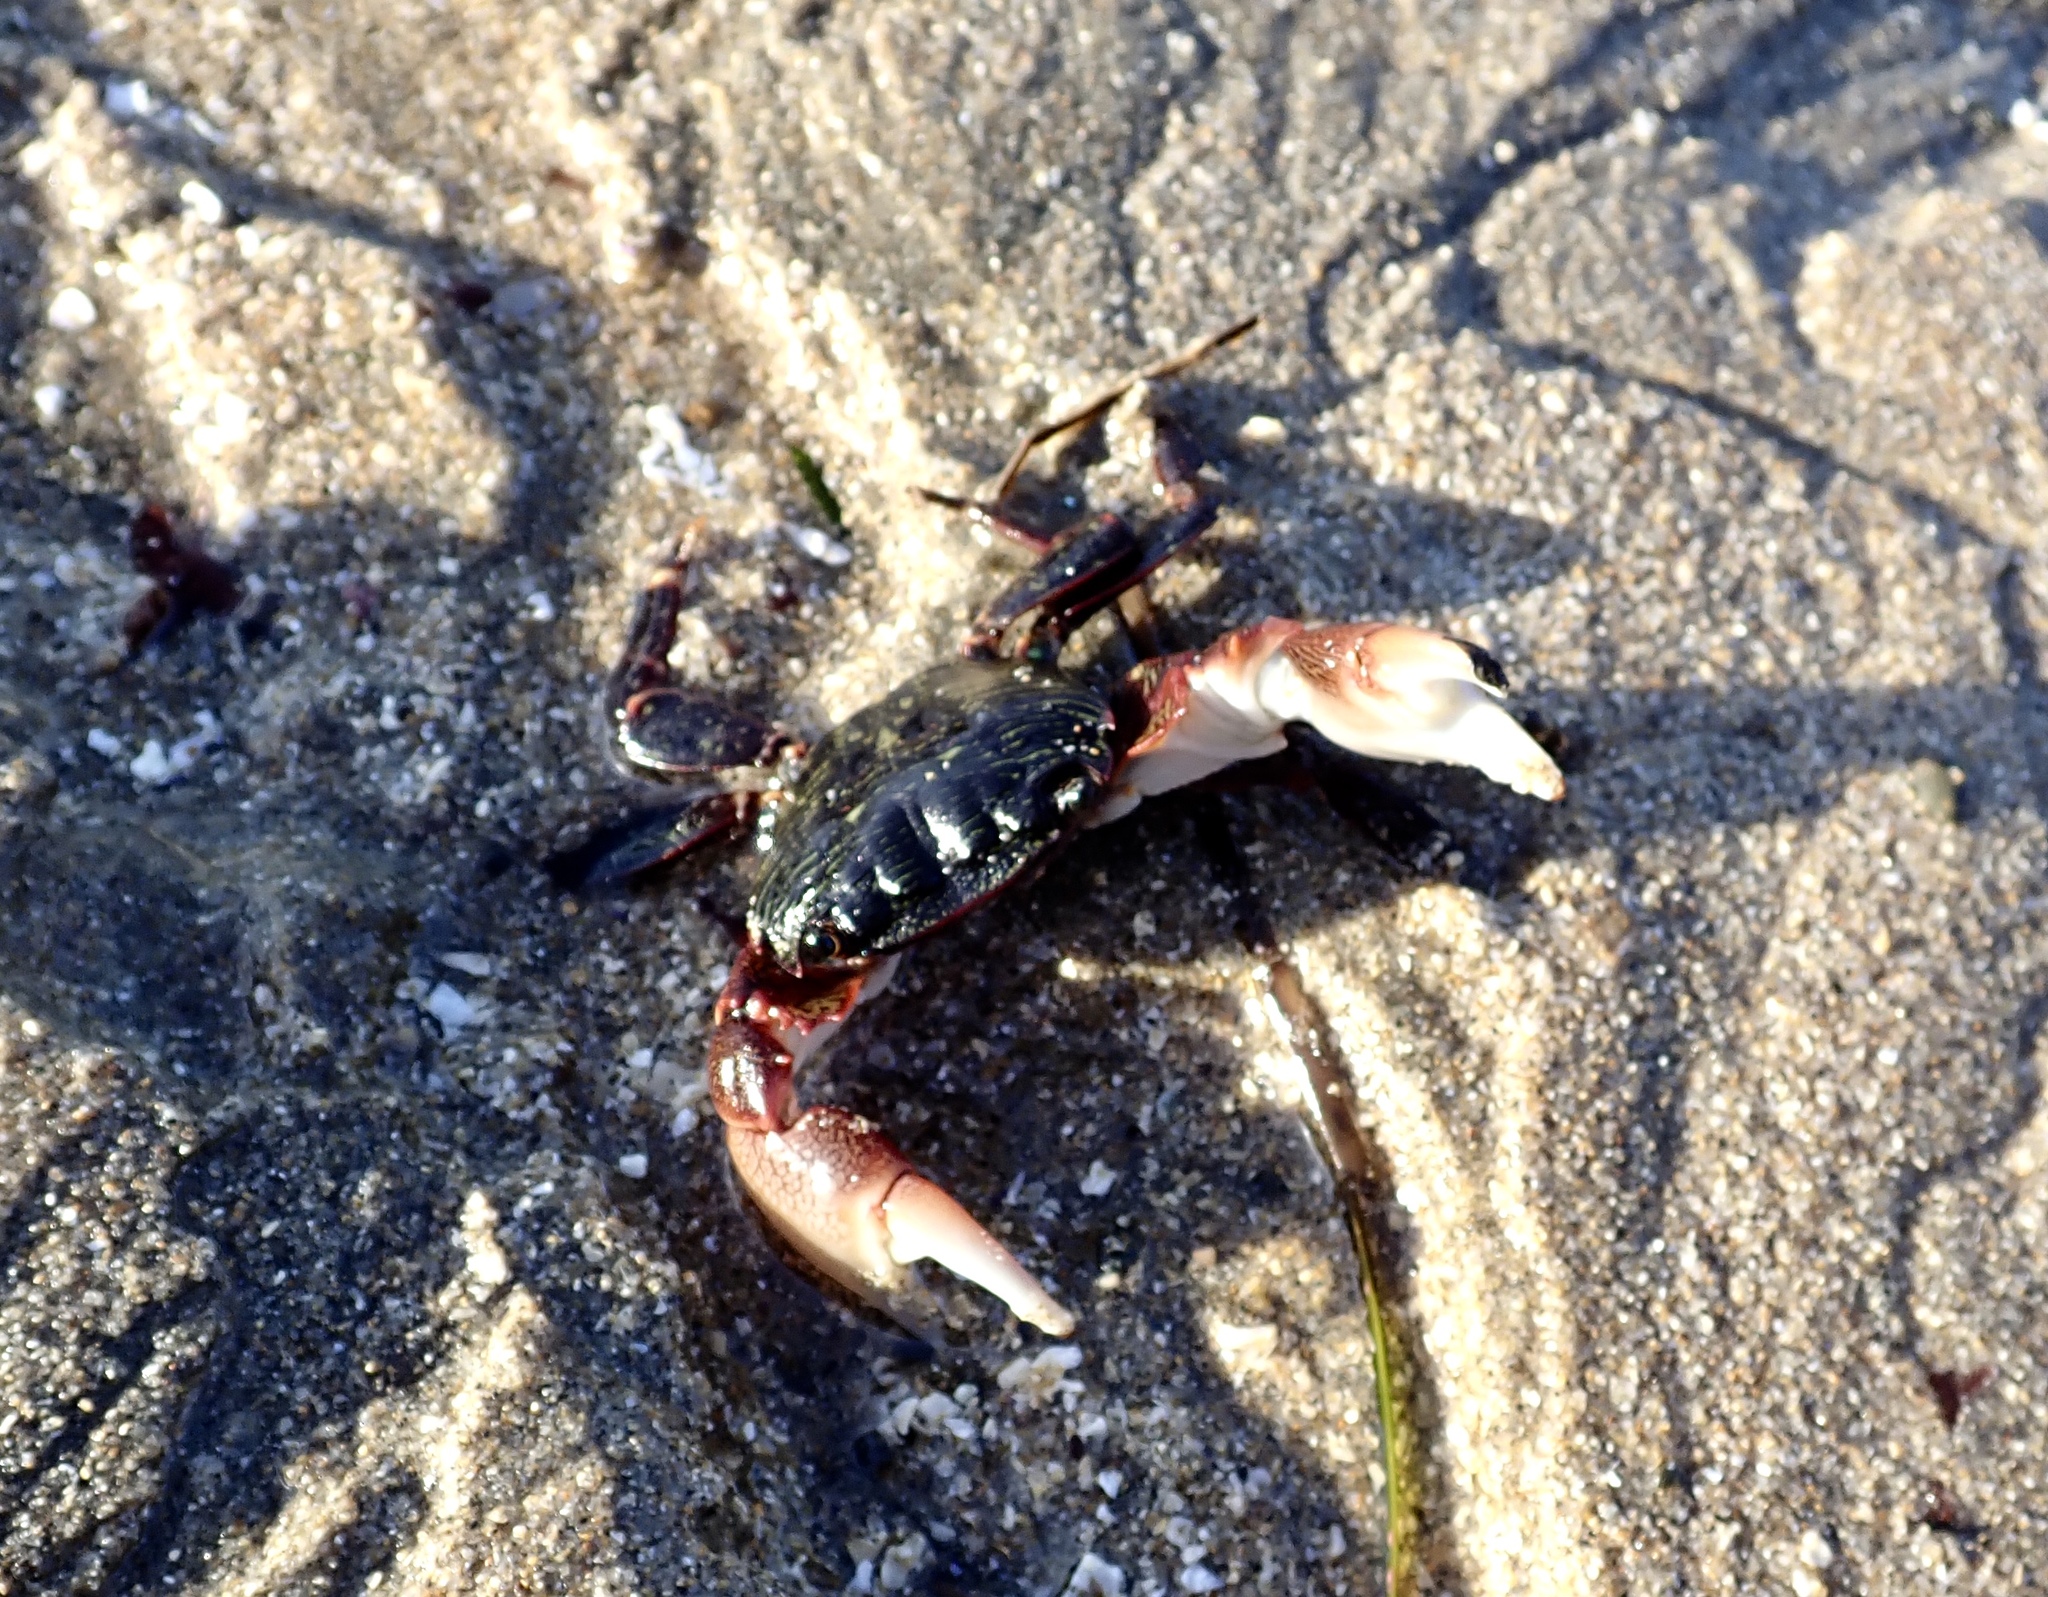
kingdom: Animalia
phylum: Arthropoda
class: Malacostraca
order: Decapoda
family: Grapsidae
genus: Pachygrapsus
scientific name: Pachygrapsus crassipes
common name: Striped shore crab
